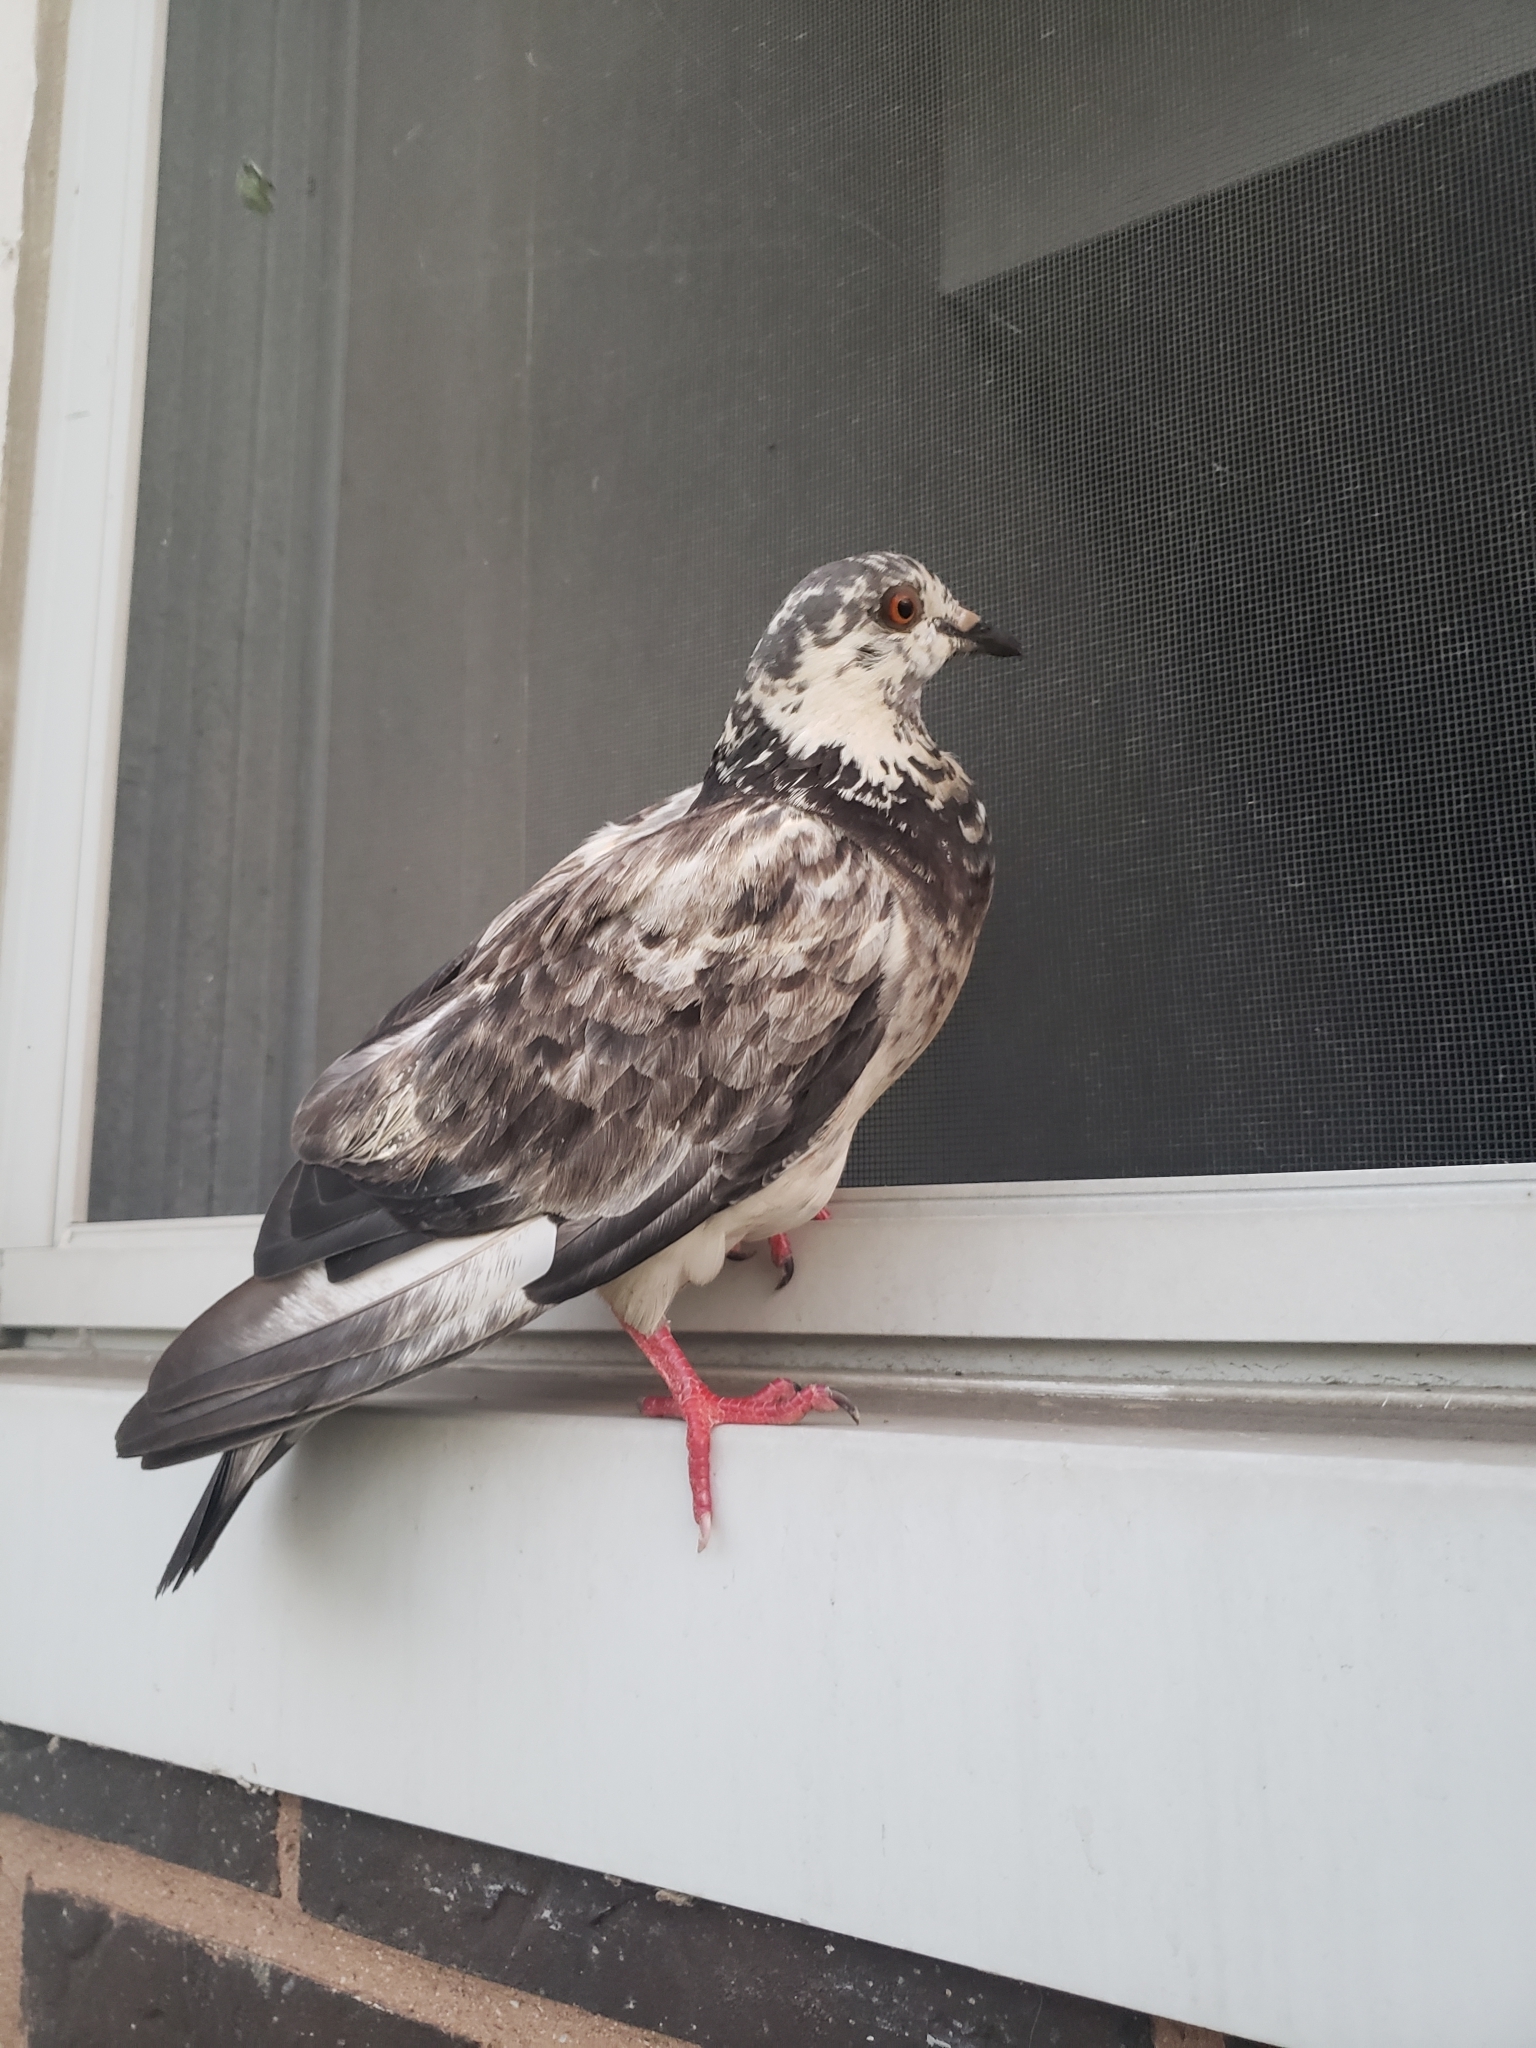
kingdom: Animalia
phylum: Chordata
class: Aves
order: Columbiformes
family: Columbidae
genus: Columba
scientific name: Columba livia
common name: Rock pigeon
